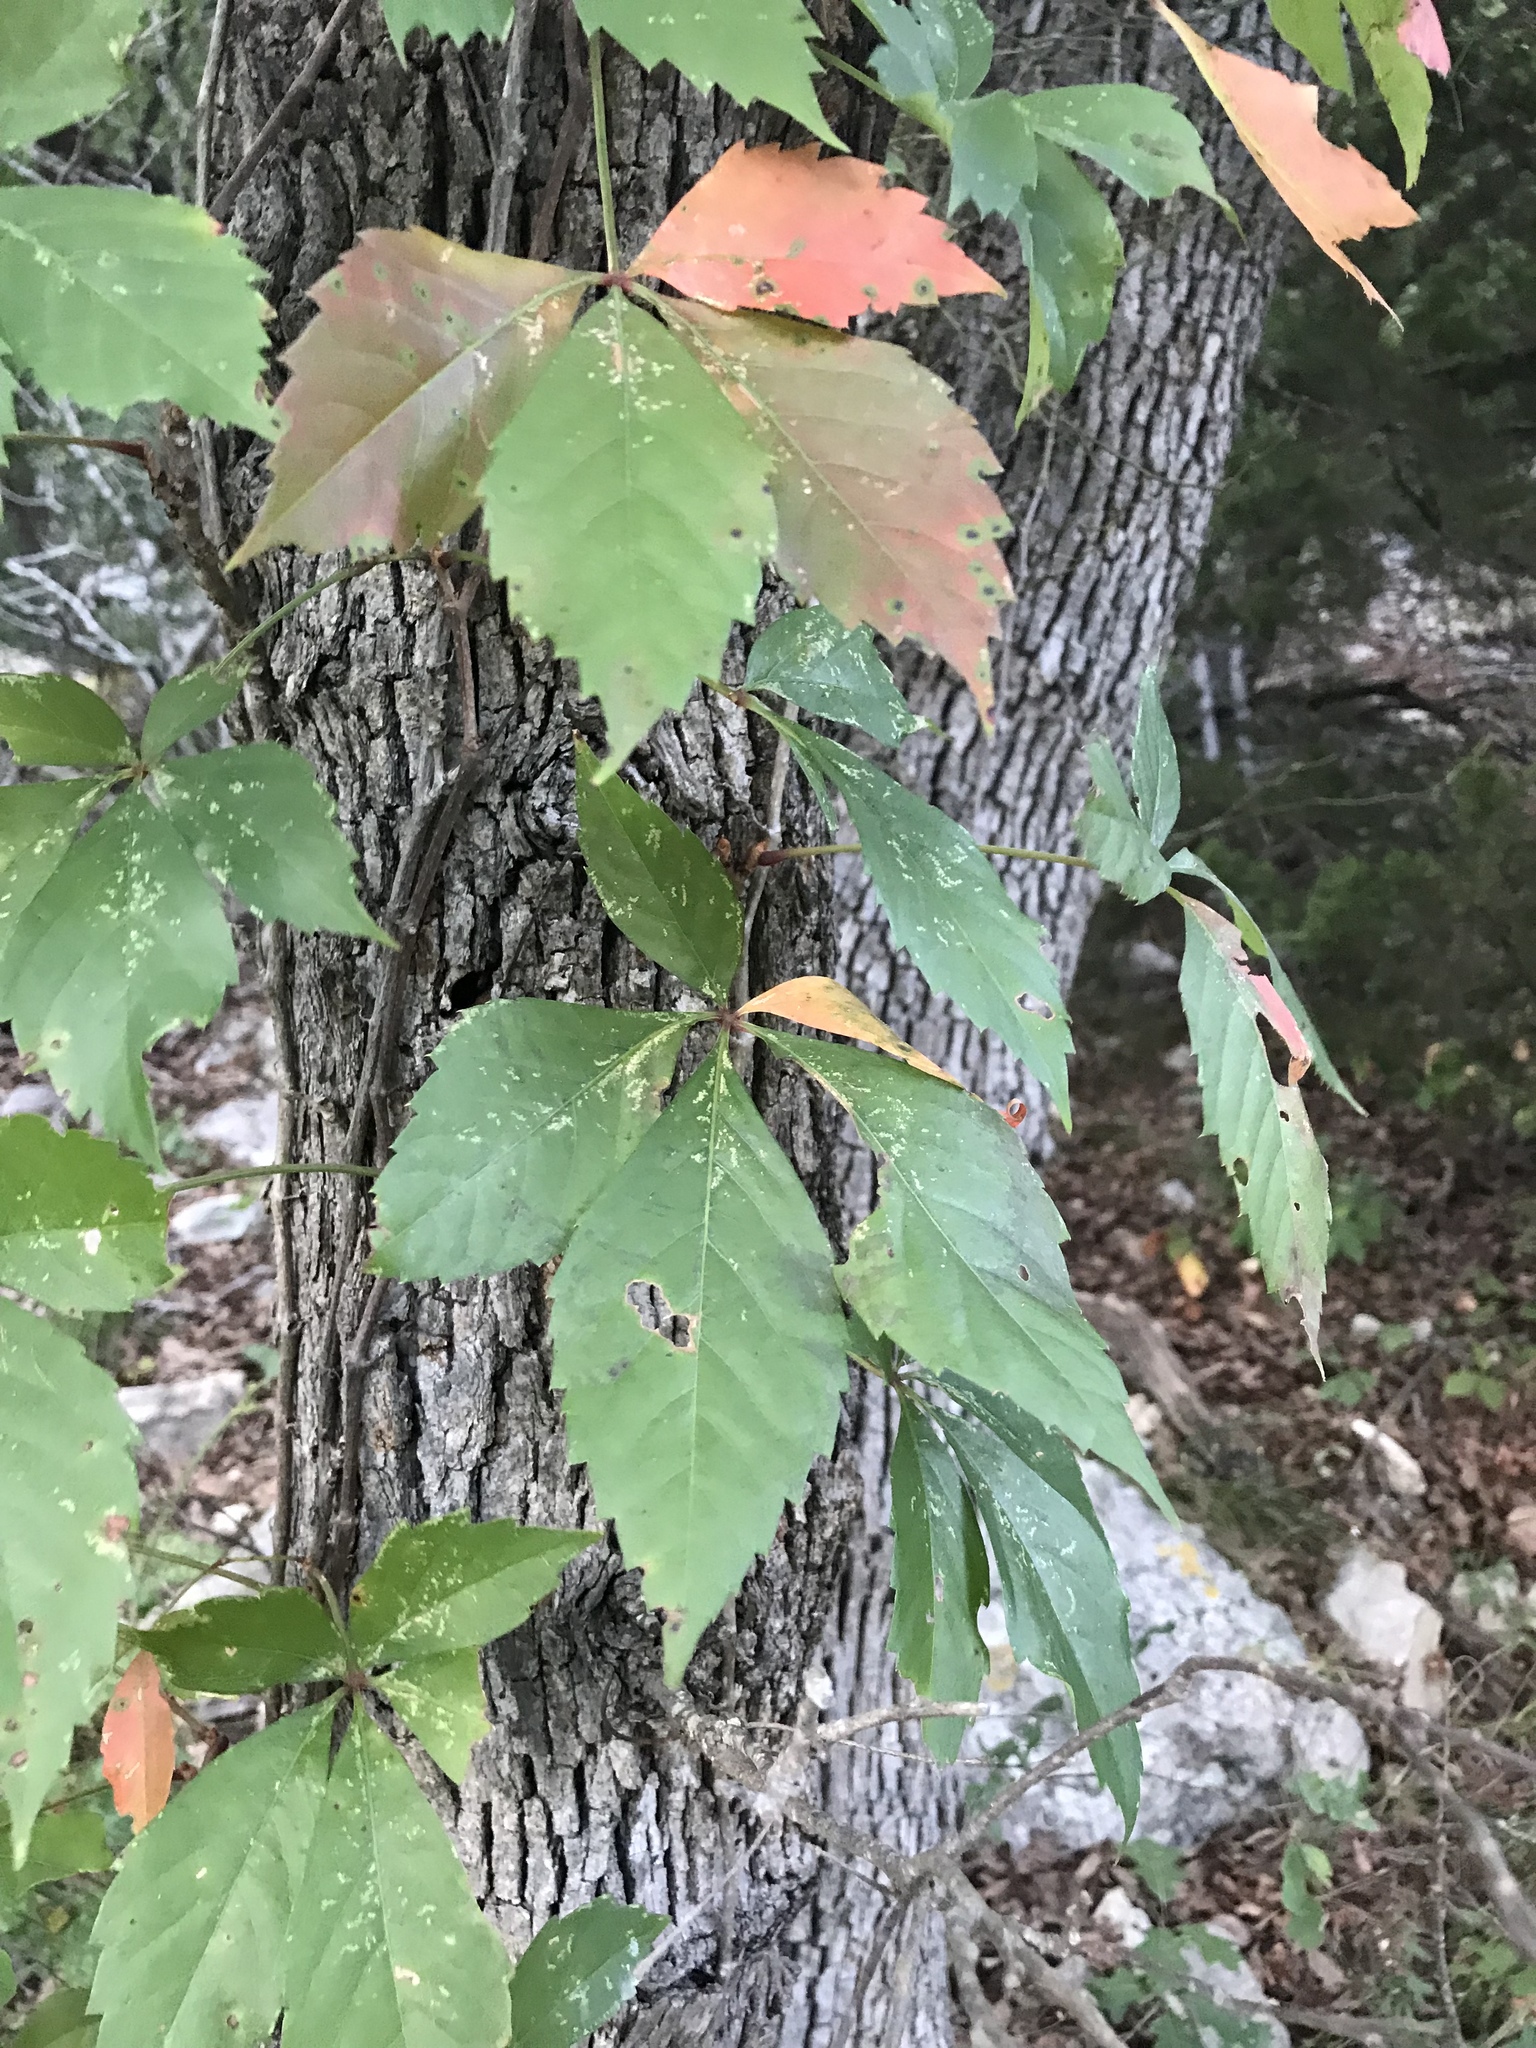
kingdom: Plantae
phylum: Tracheophyta
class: Magnoliopsida
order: Vitales
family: Vitaceae
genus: Parthenocissus
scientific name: Parthenocissus quinquefolia
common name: Virginia-creeper
